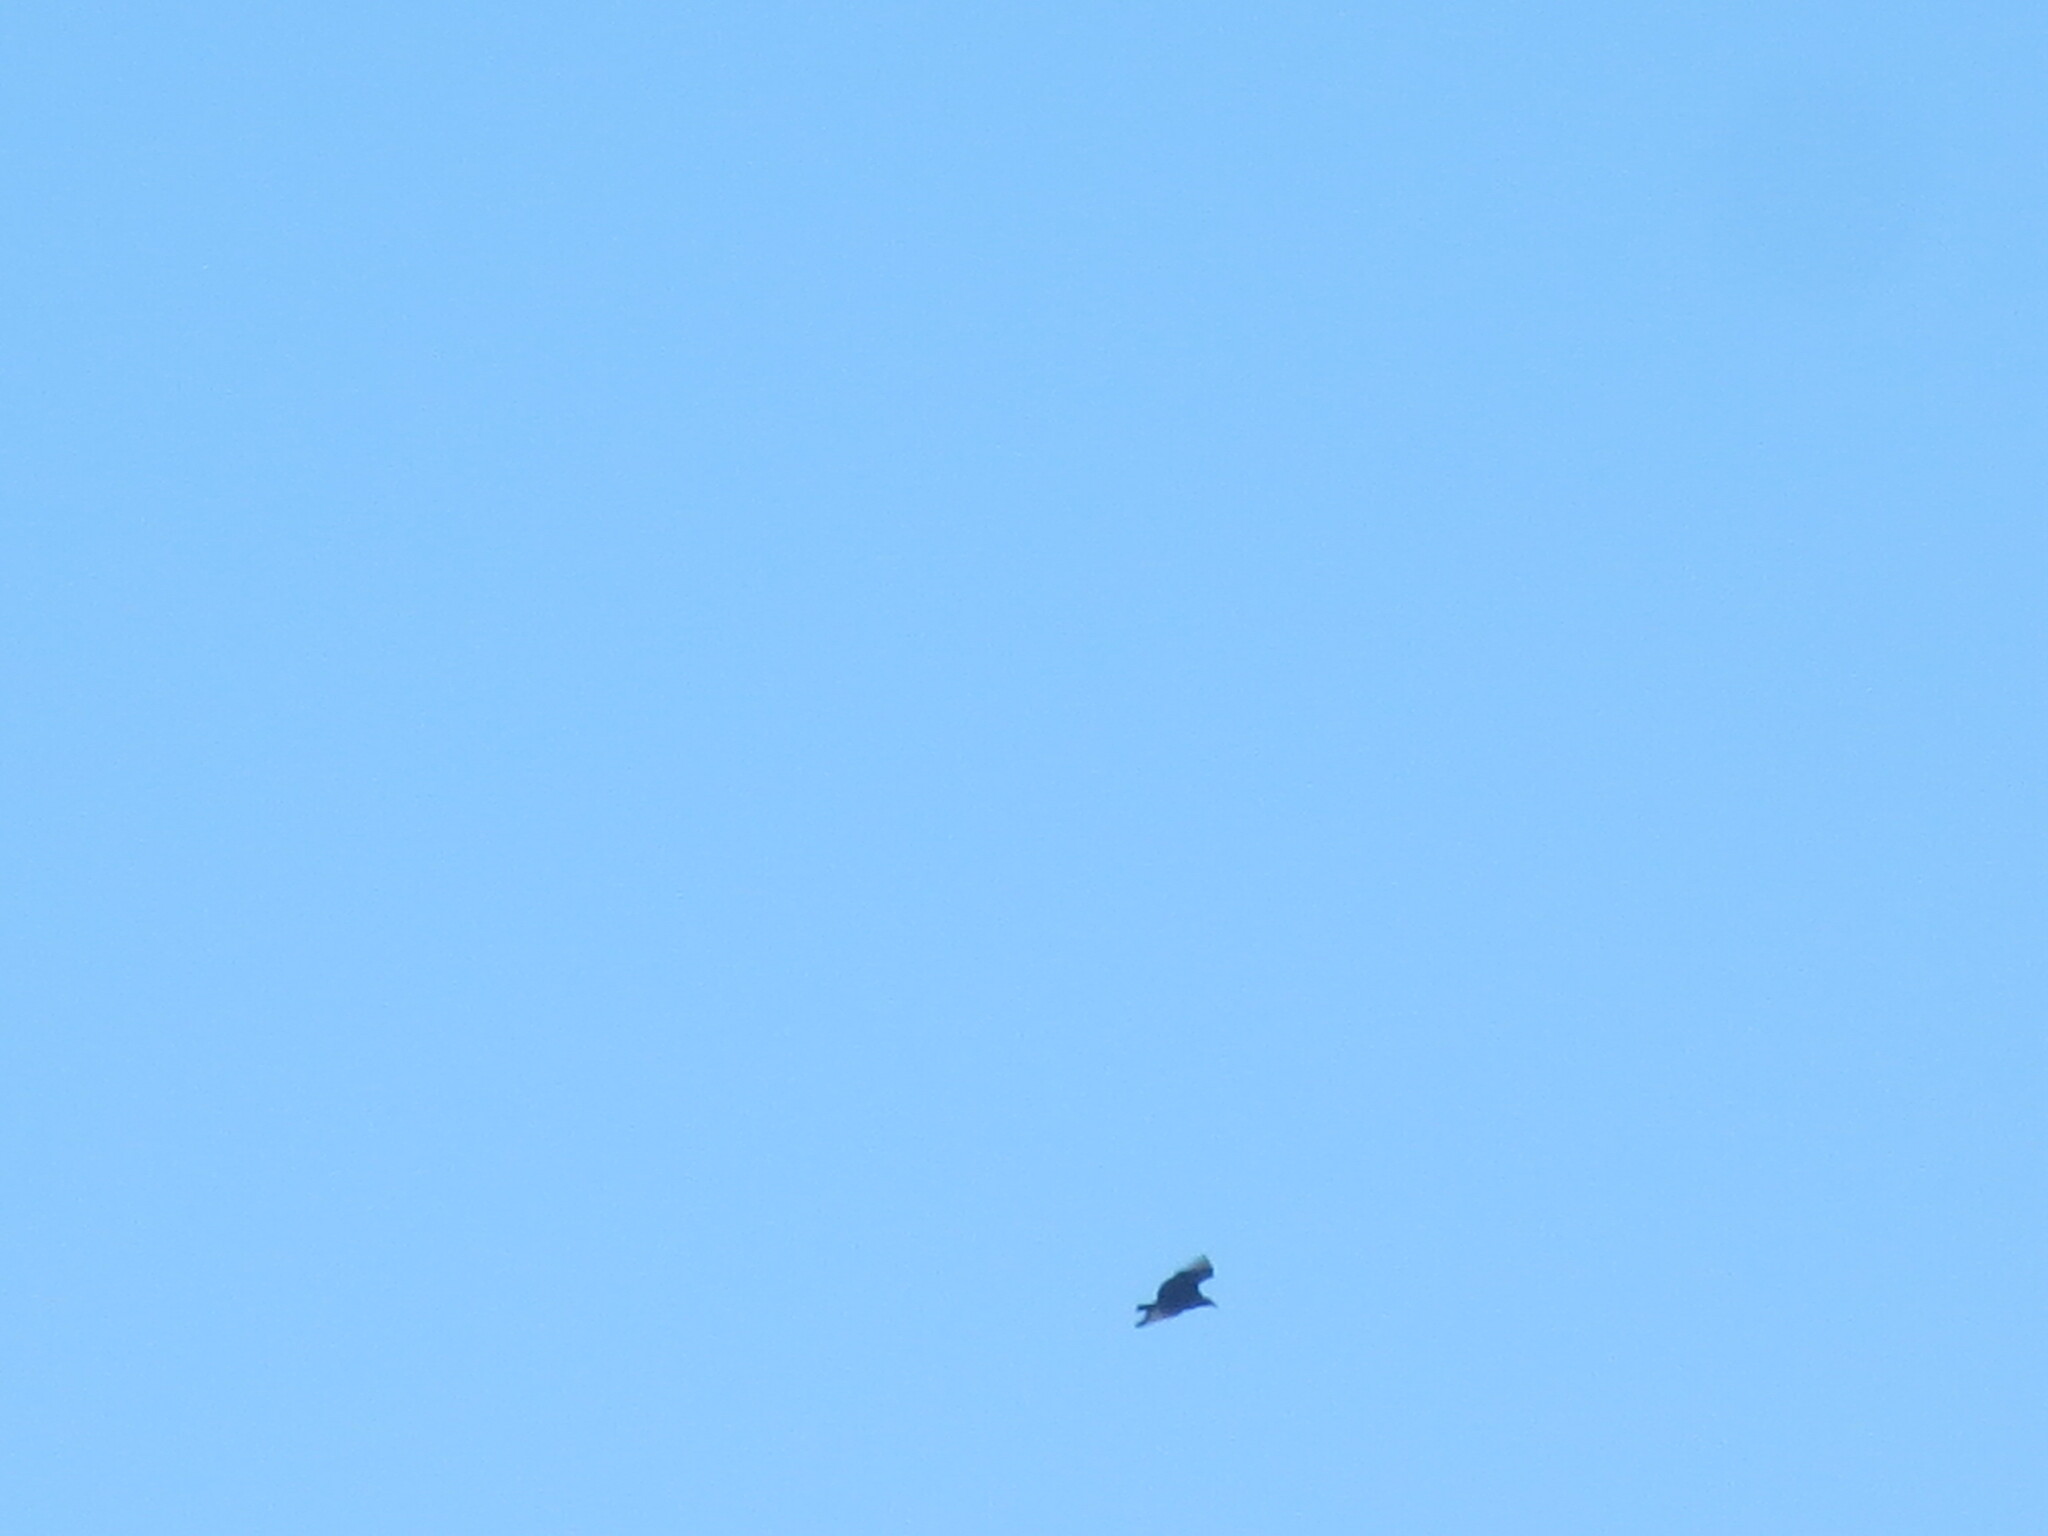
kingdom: Animalia
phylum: Chordata
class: Aves
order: Accipitriformes
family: Cathartidae
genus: Coragyps
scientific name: Coragyps atratus
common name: Black vulture
